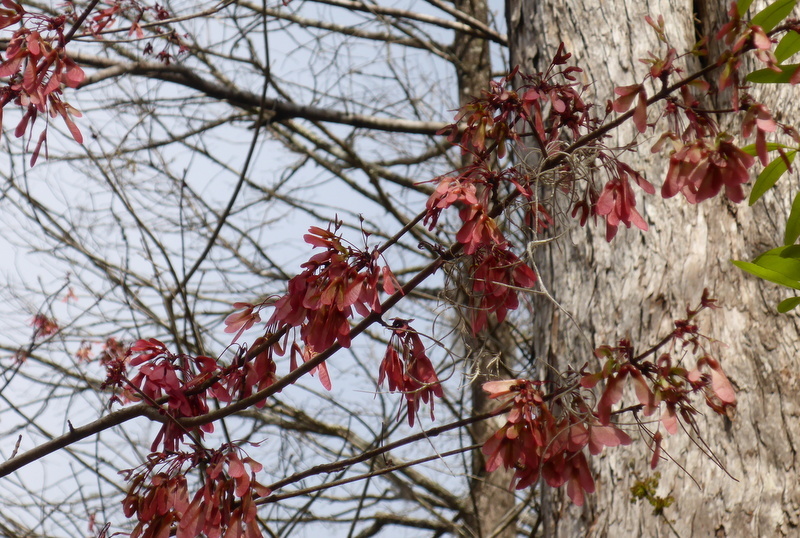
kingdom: Plantae
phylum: Tracheophyta
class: Magnoliopsida
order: Sapindales
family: Sapindaceae
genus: Acer
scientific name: Acer rubrum
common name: Red maple
